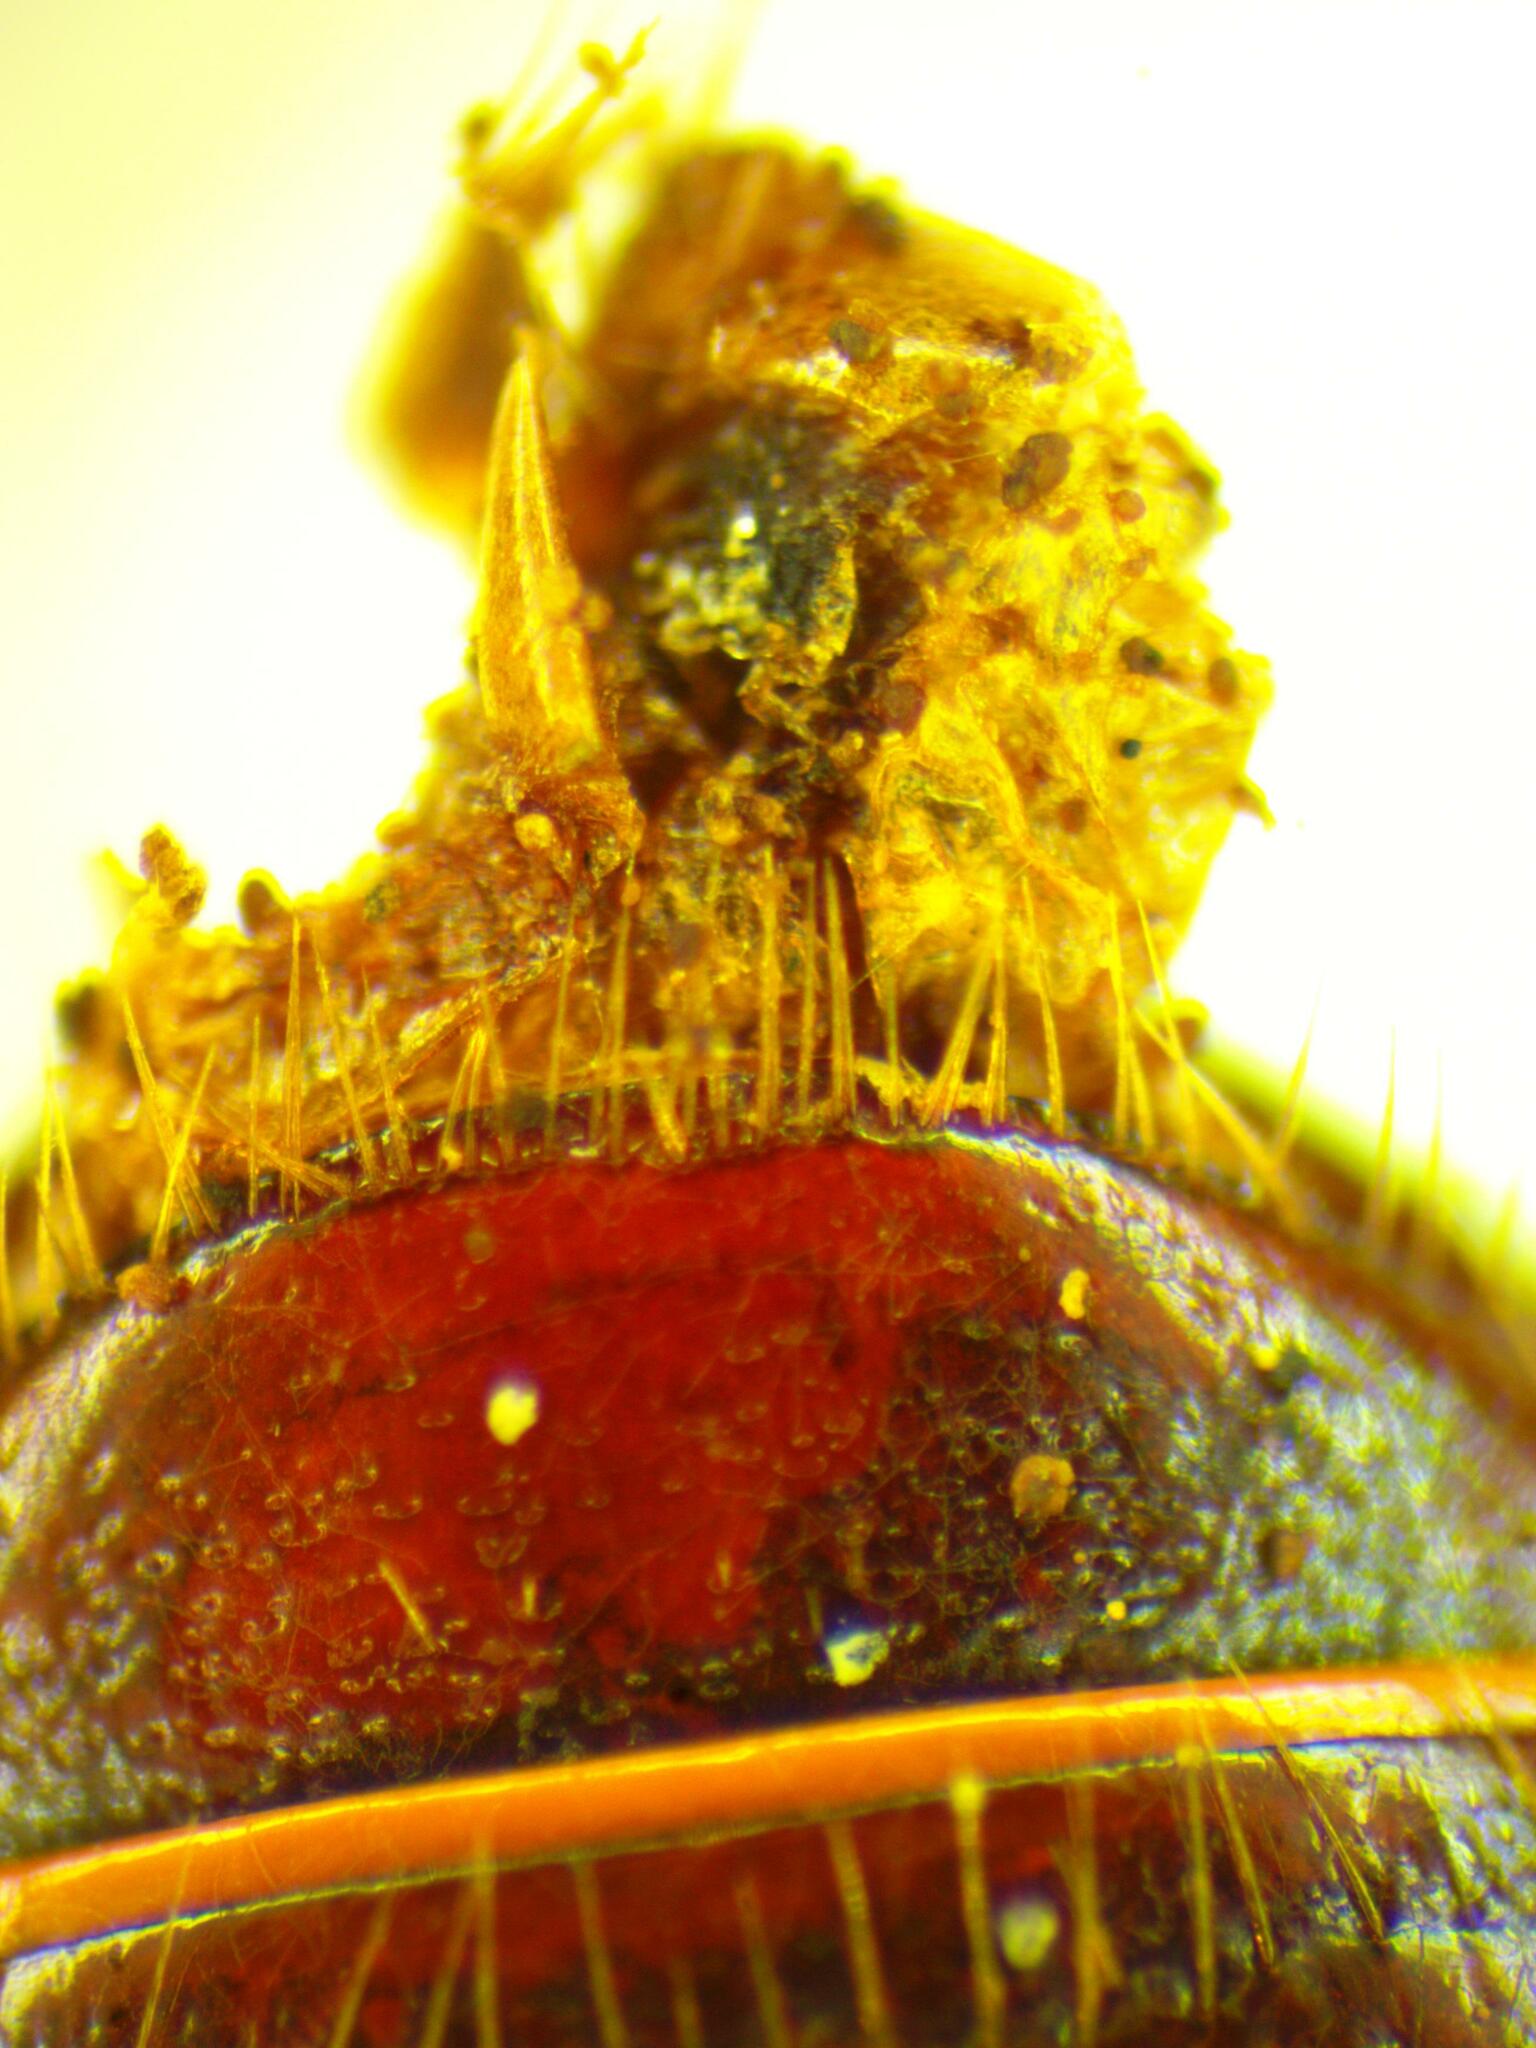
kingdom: Animalia
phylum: Arthropoda
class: Insecta
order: Coleoptera
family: Scarabaeidae
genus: Cyclocephala
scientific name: Cyclocephala melanocephala
